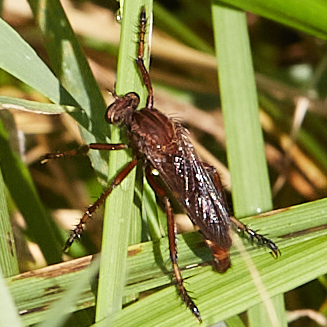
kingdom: Animalia
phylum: Arthropoda
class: Insecta
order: Diptera
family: Asilidae
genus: Diogmites
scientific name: Diogmites basalis
